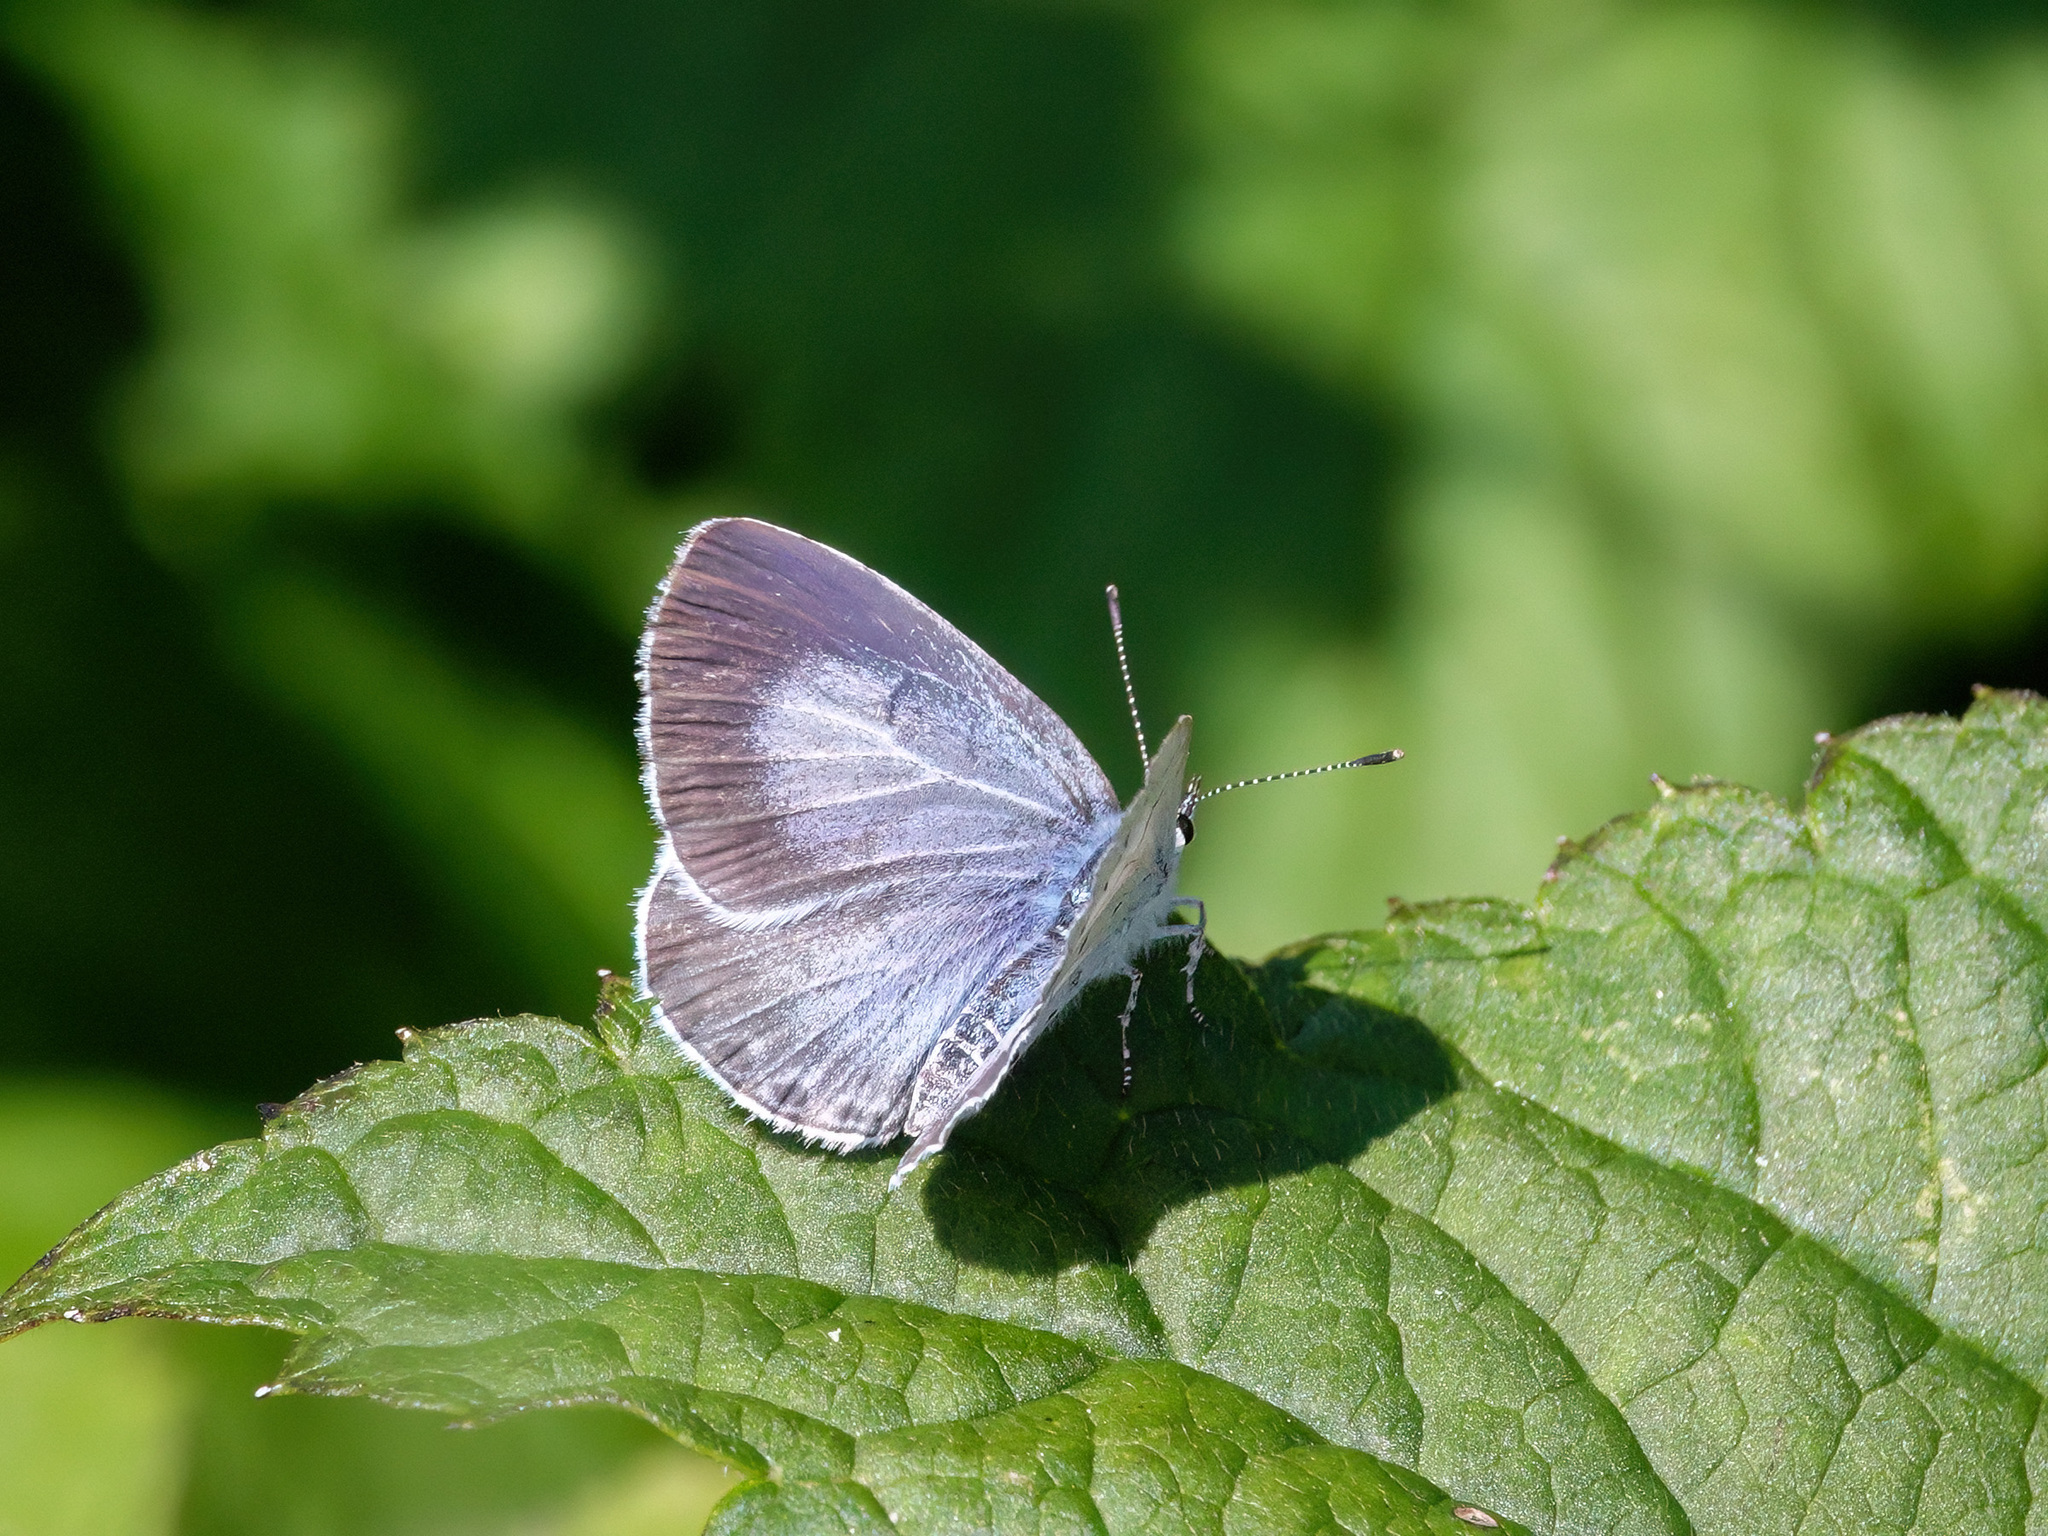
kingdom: Animalia
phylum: Arthropoda
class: Insecta
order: Lepidoptera
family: Lycaenidae
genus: Celastrina
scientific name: Celastrina argiolus
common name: Holly blue
